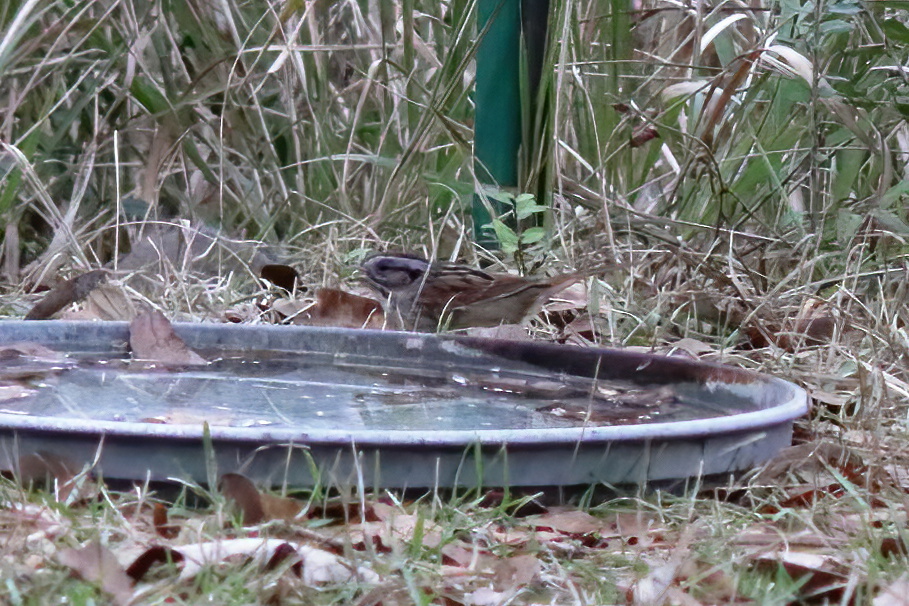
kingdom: Animalia
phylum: Chordata
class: Aves
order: Passeriformes
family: Passerellidae
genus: Melospiza
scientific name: Melospiza georgiana
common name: Swamp sparrow
